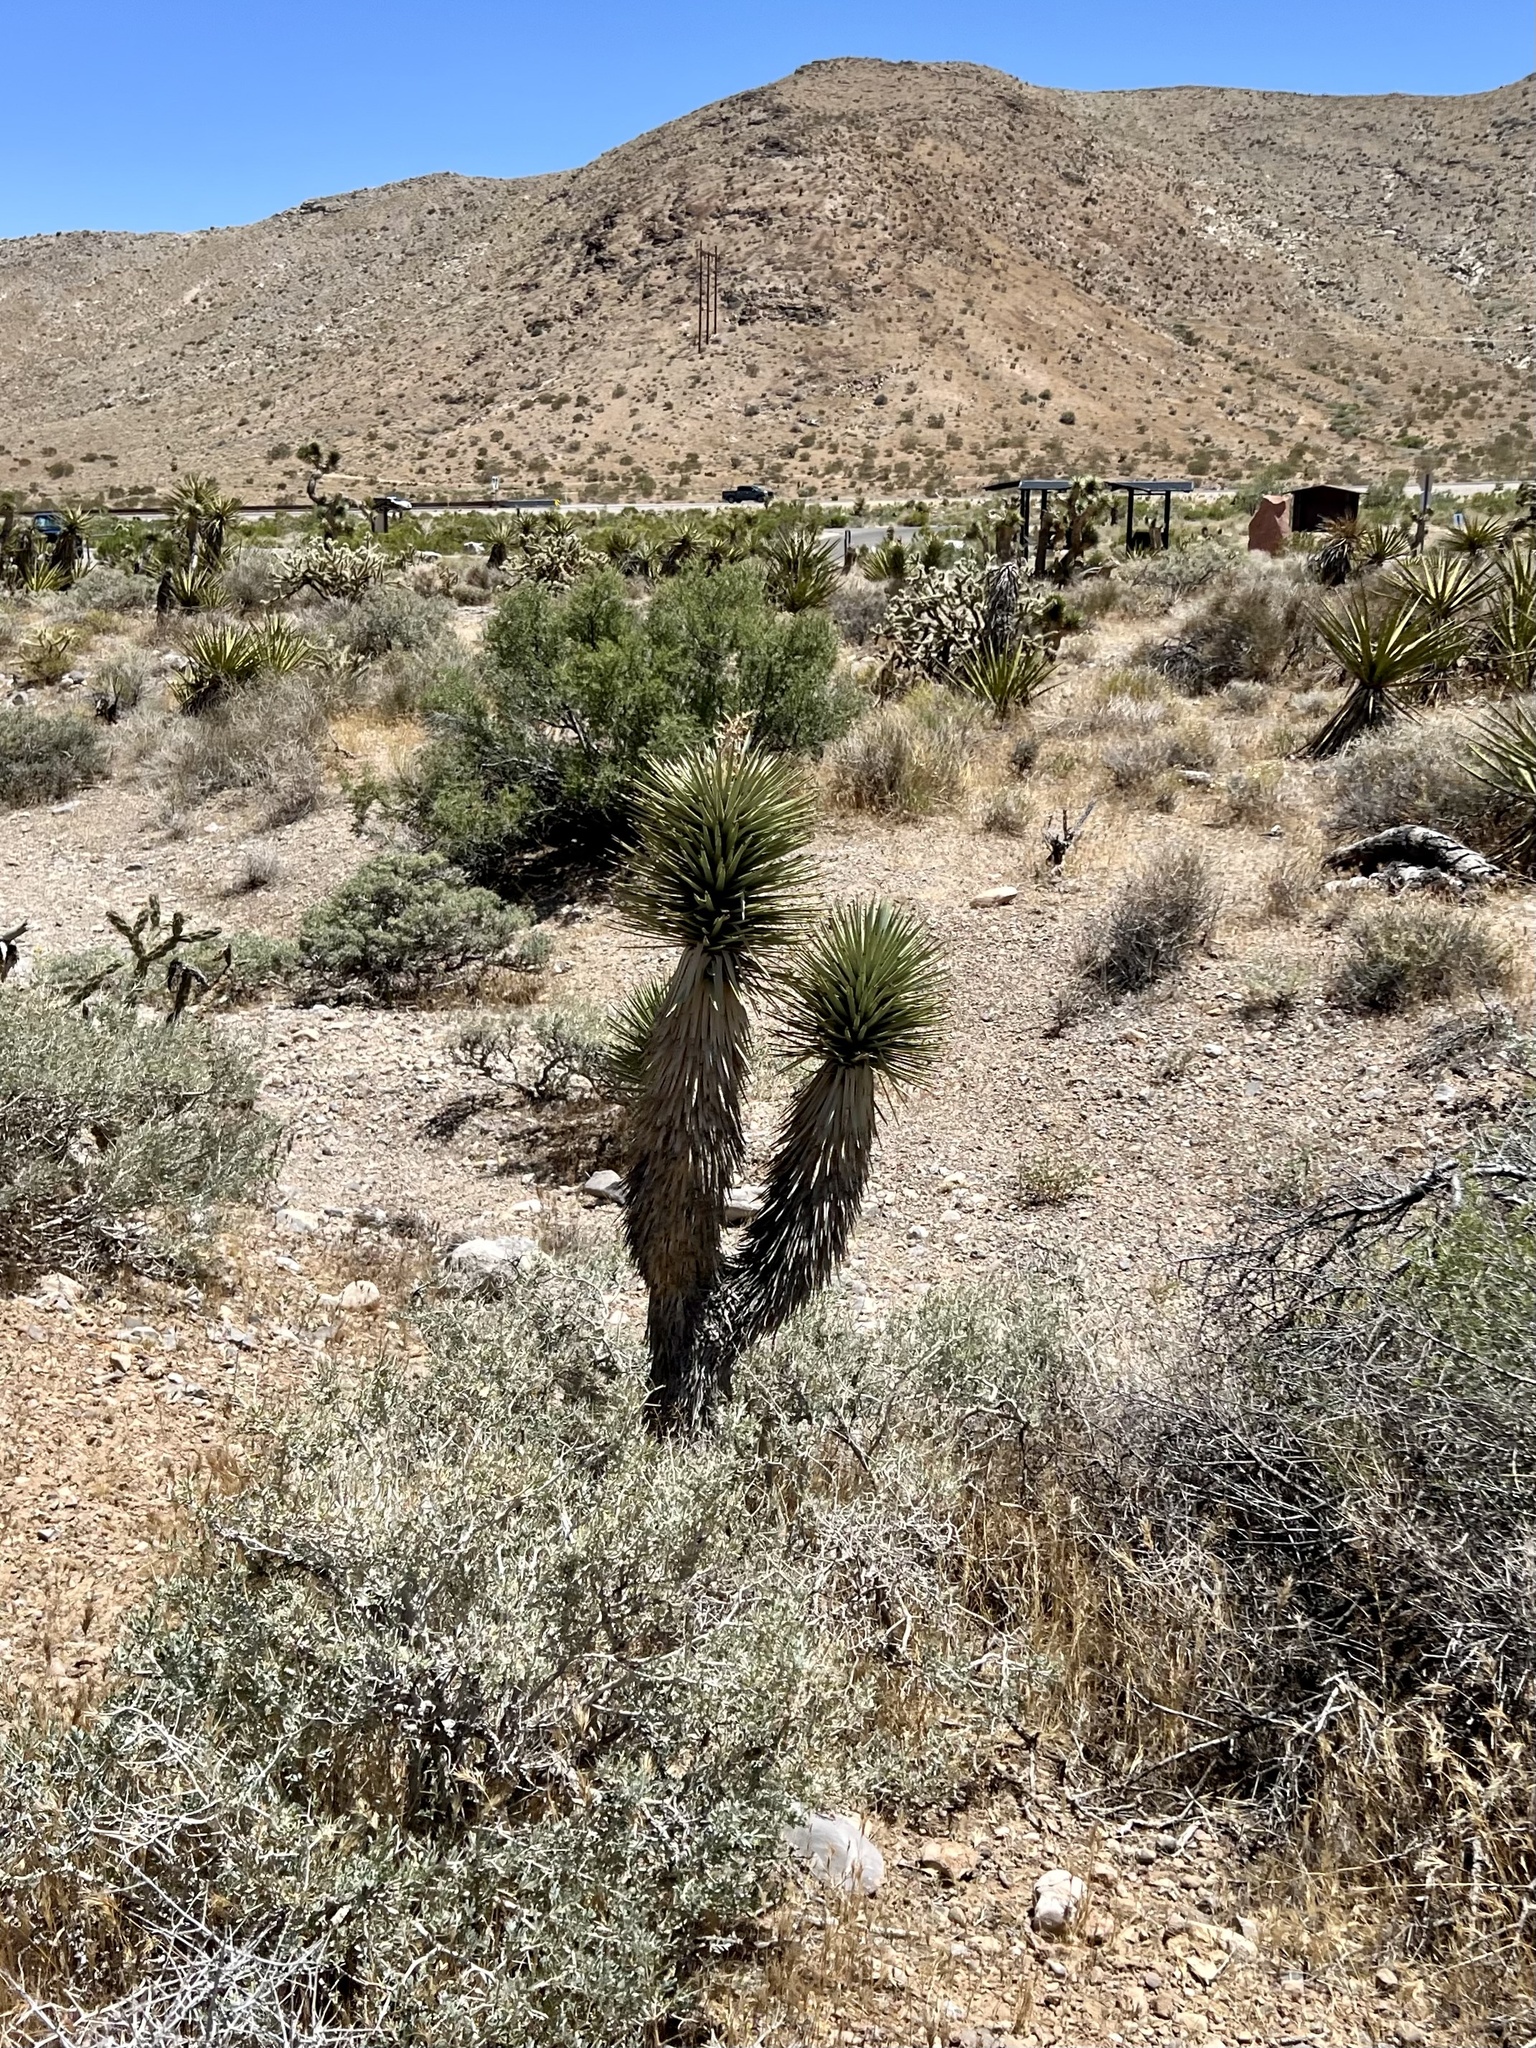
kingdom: Plantae
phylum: Tracheophyta
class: Liliopsida
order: Asparagales
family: Asparagaceae
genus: Yucca
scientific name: Yucca brevifolia
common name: Joshua tree
